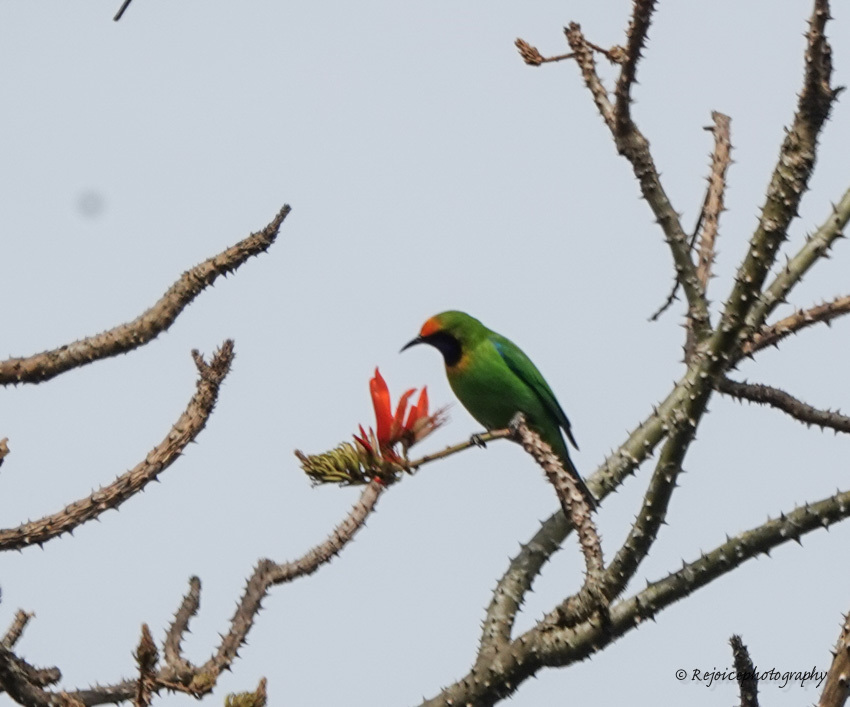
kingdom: Animalia
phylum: Chordata
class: Aves
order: Passeriformes
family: Chloropseidae
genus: Chloropsis
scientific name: Chloropsis aurifrons
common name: Golden-fronted leafbird
